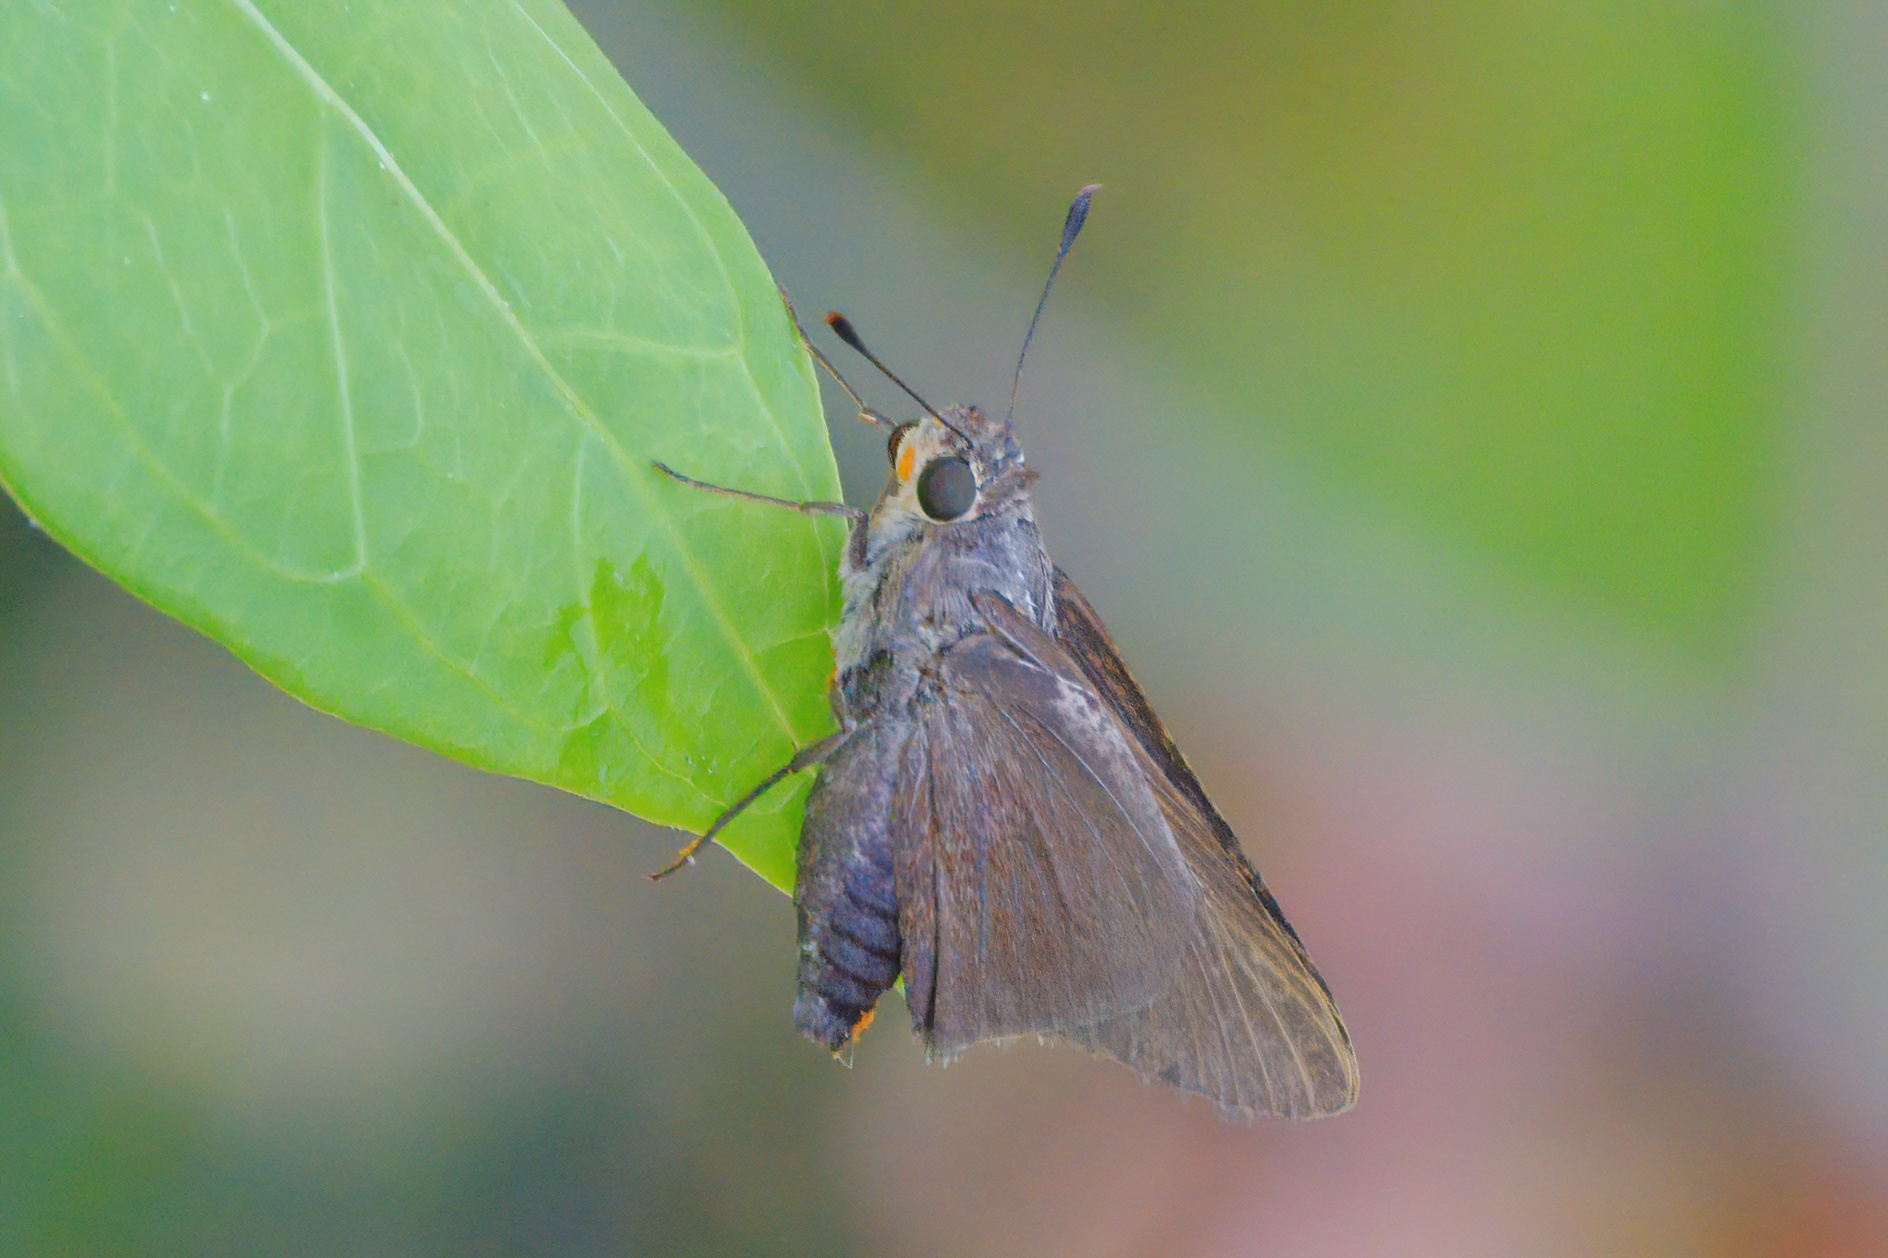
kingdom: Animalia
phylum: Arthropoda
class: Insecta
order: Lepidoptera
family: Hesperiidae
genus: Asbolis
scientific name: Asbolis capucinus
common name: Monk skipper
